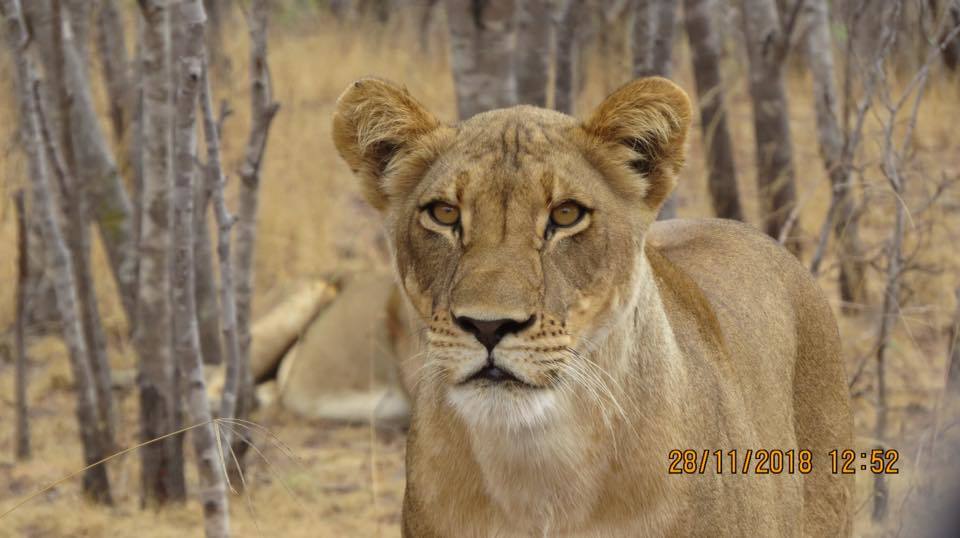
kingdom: Animalia
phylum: Chordata
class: Mammalia
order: Carnivora
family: Felidae
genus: Panthera
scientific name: Panthera leo
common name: Lion
